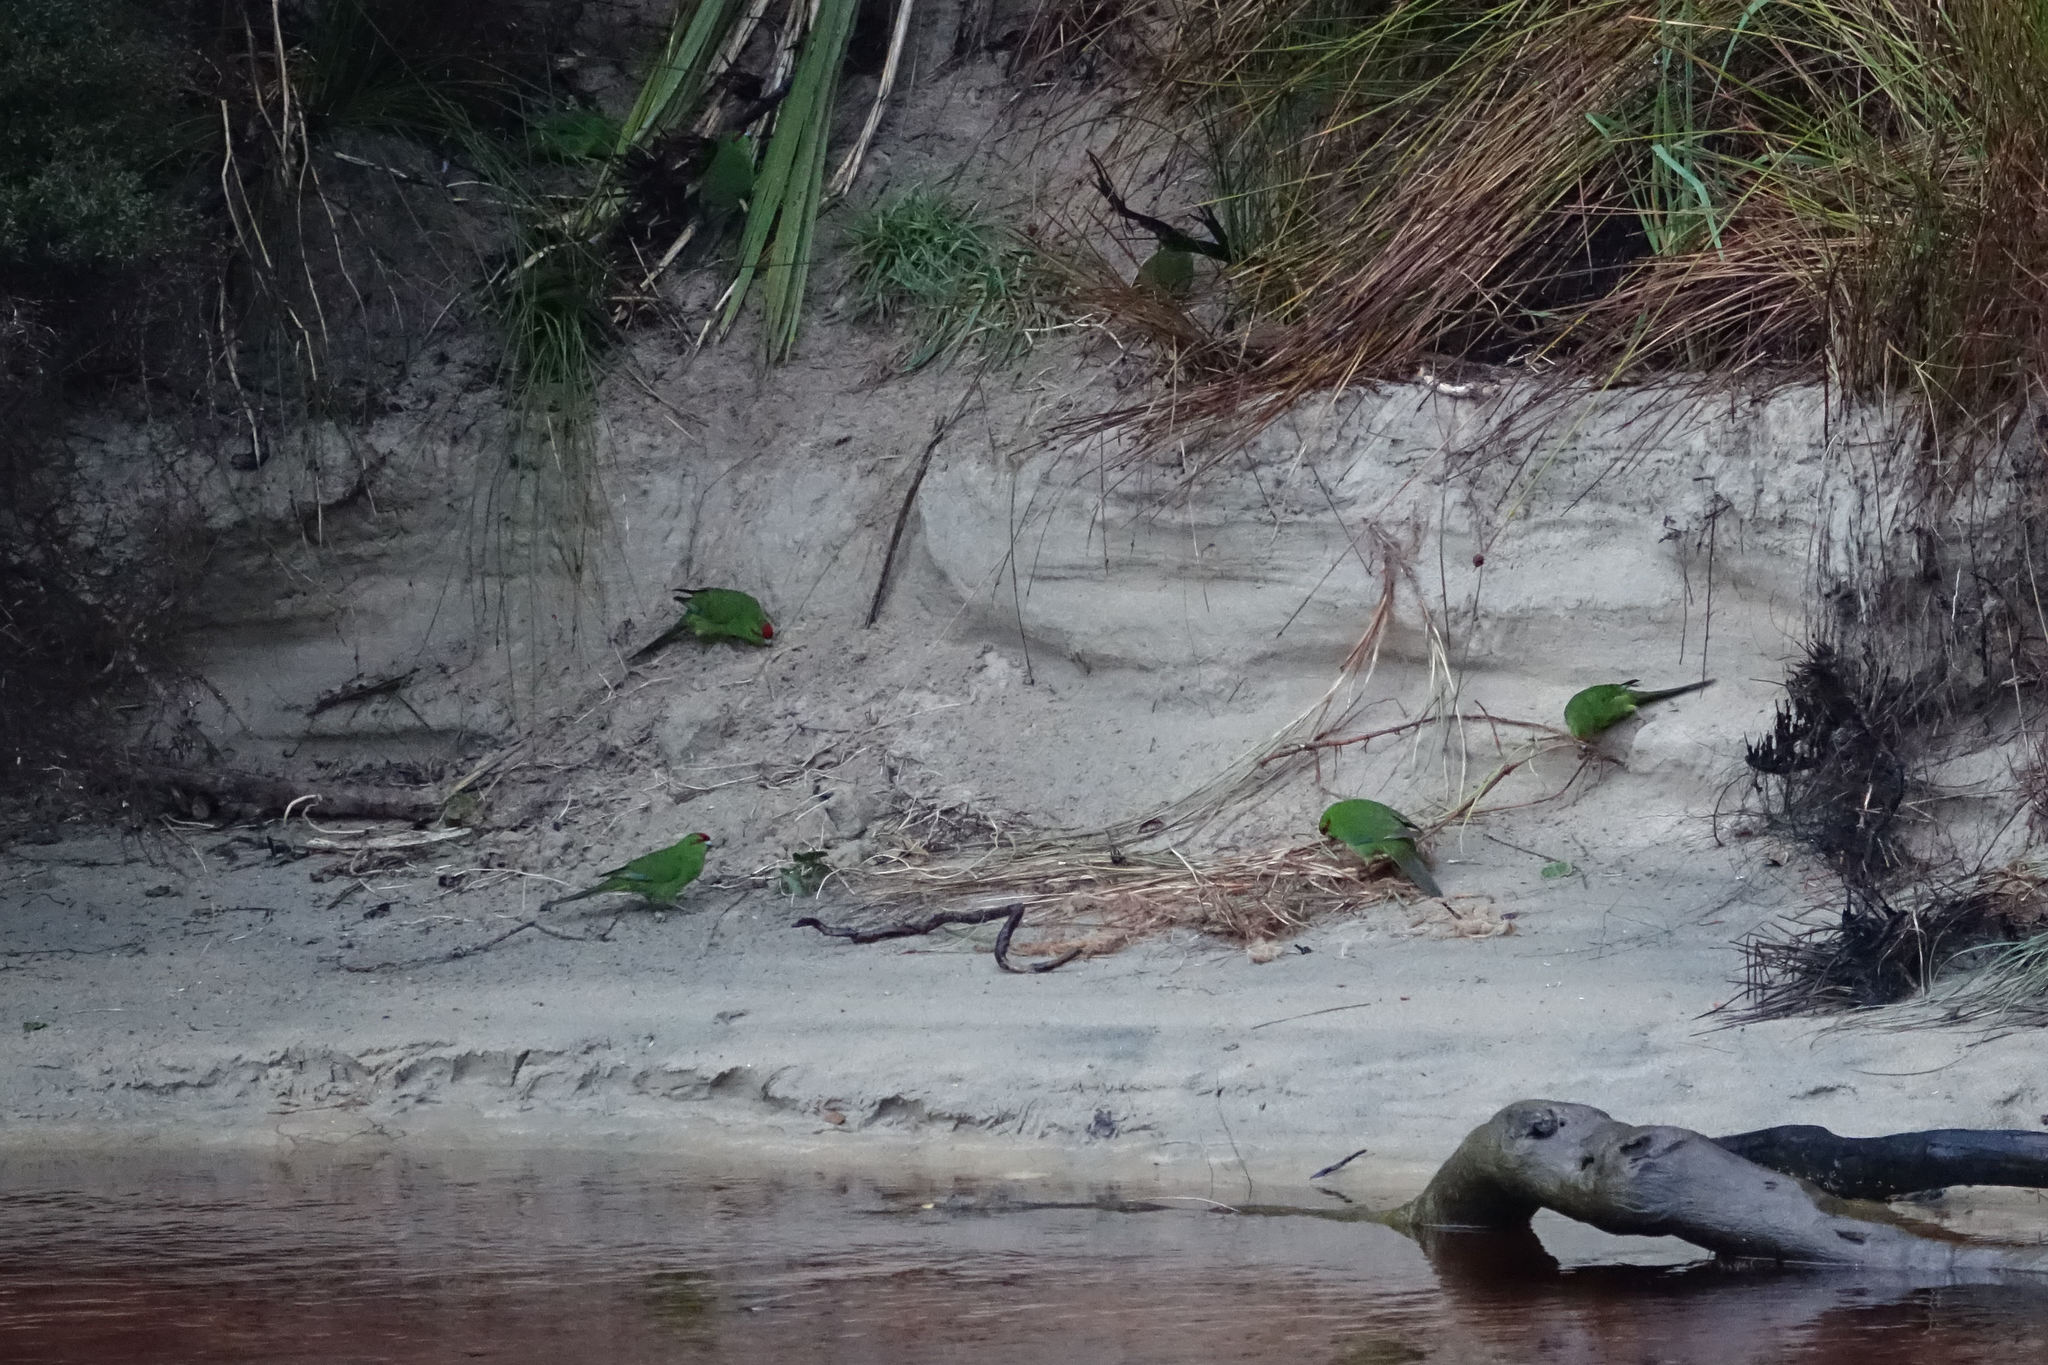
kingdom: Animalia
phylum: Chordata
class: Aves
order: Psittaciformes
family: Psittacidae
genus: Cyanoramphus
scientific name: Cyanoramphus novaezelandiae
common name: Red-fronted parakeet
